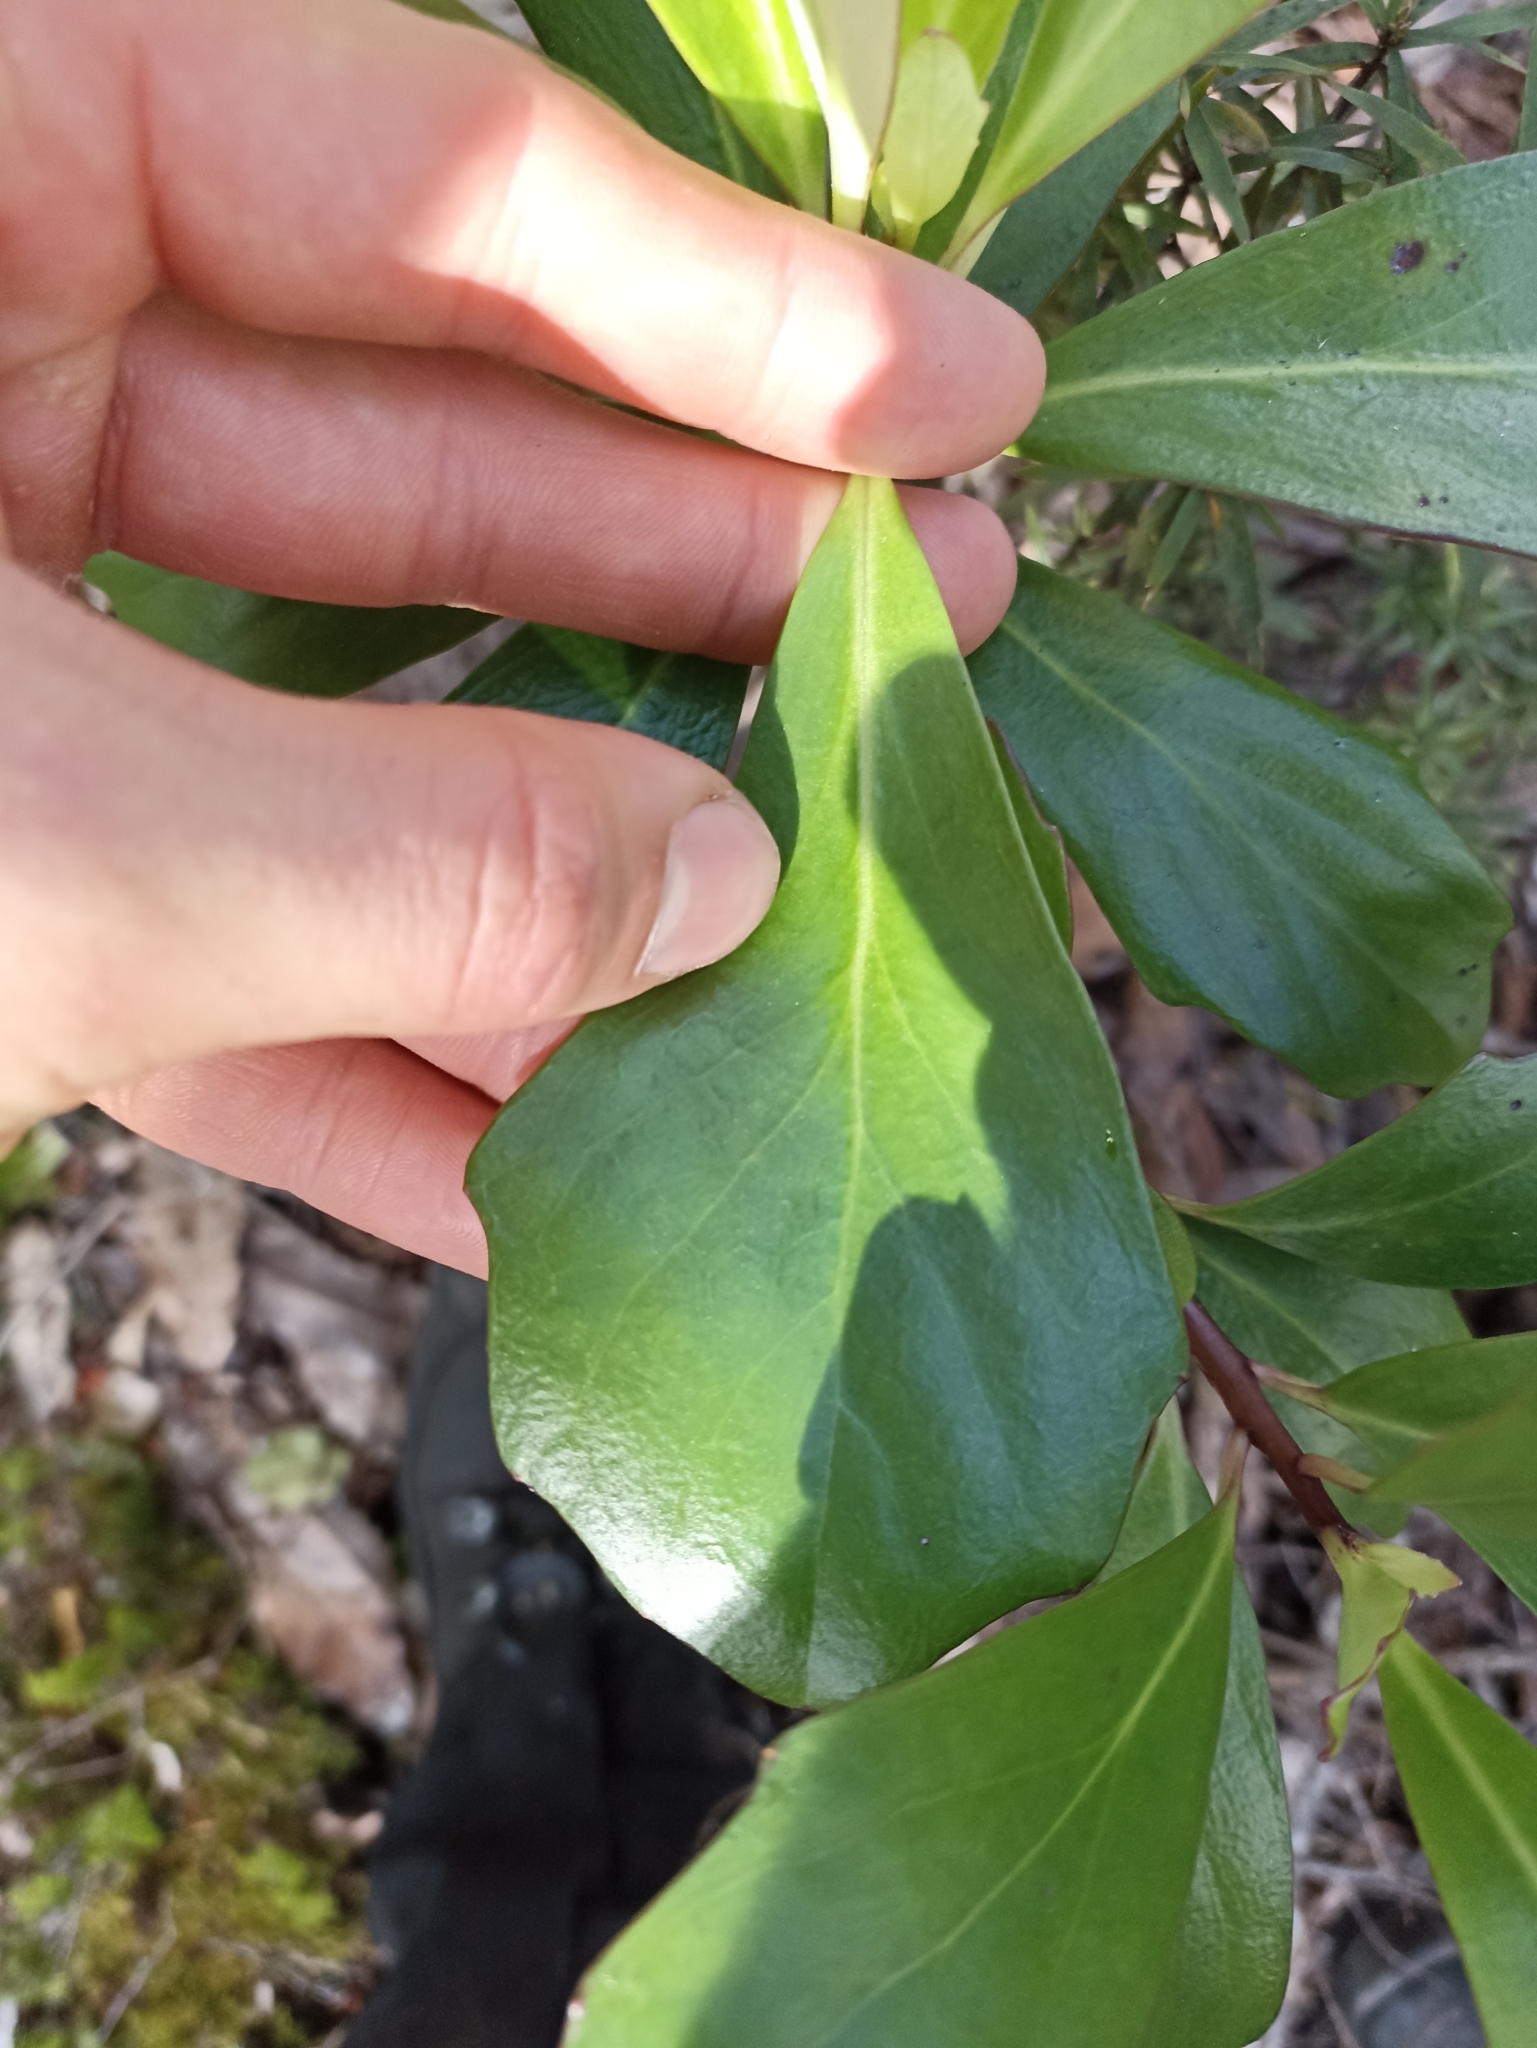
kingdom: Plantae
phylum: Tracheophyta
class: Magnoliopsida
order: Asterales
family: Asteraceae
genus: Brachyglottis
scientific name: Brachyglottis kirkii
